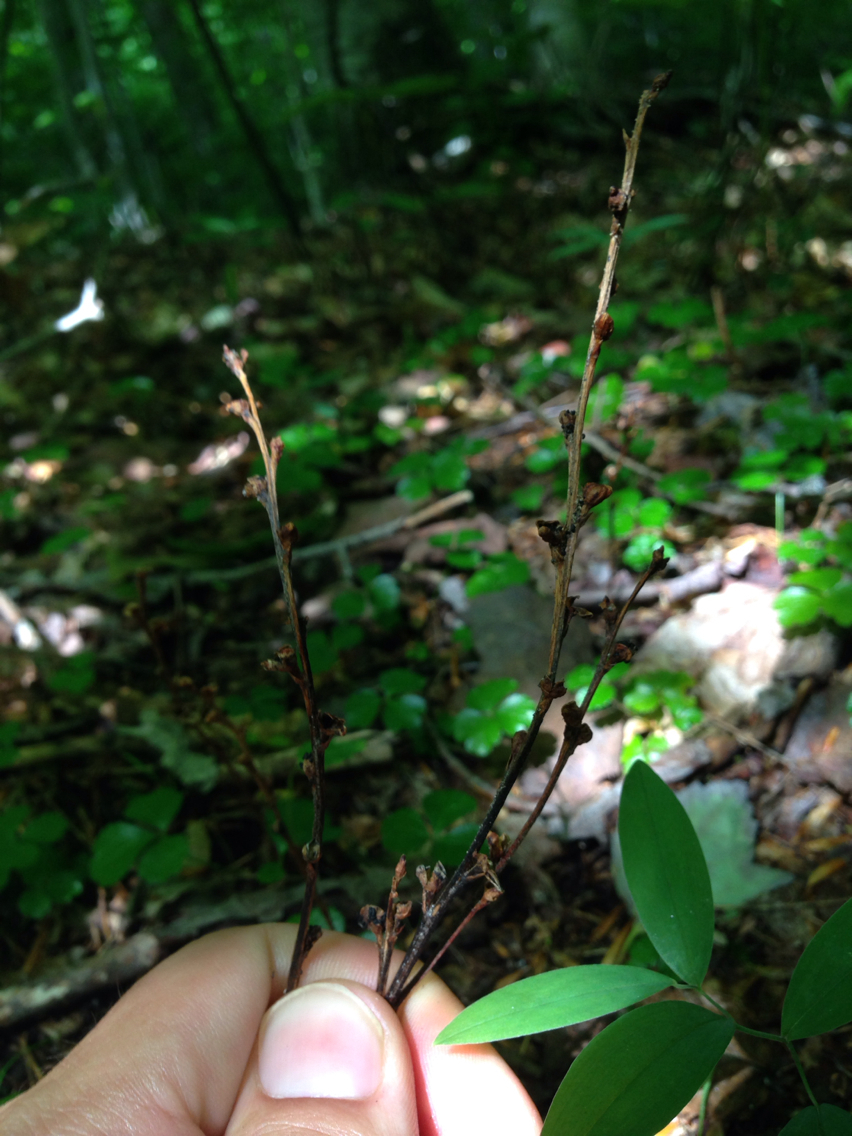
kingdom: Plantae
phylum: Tracheophyta
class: Magnoliopsida
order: Lamiales
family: Orobanchaceae
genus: Epifagus
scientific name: Epifagus virginiana
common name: Beechdrops
